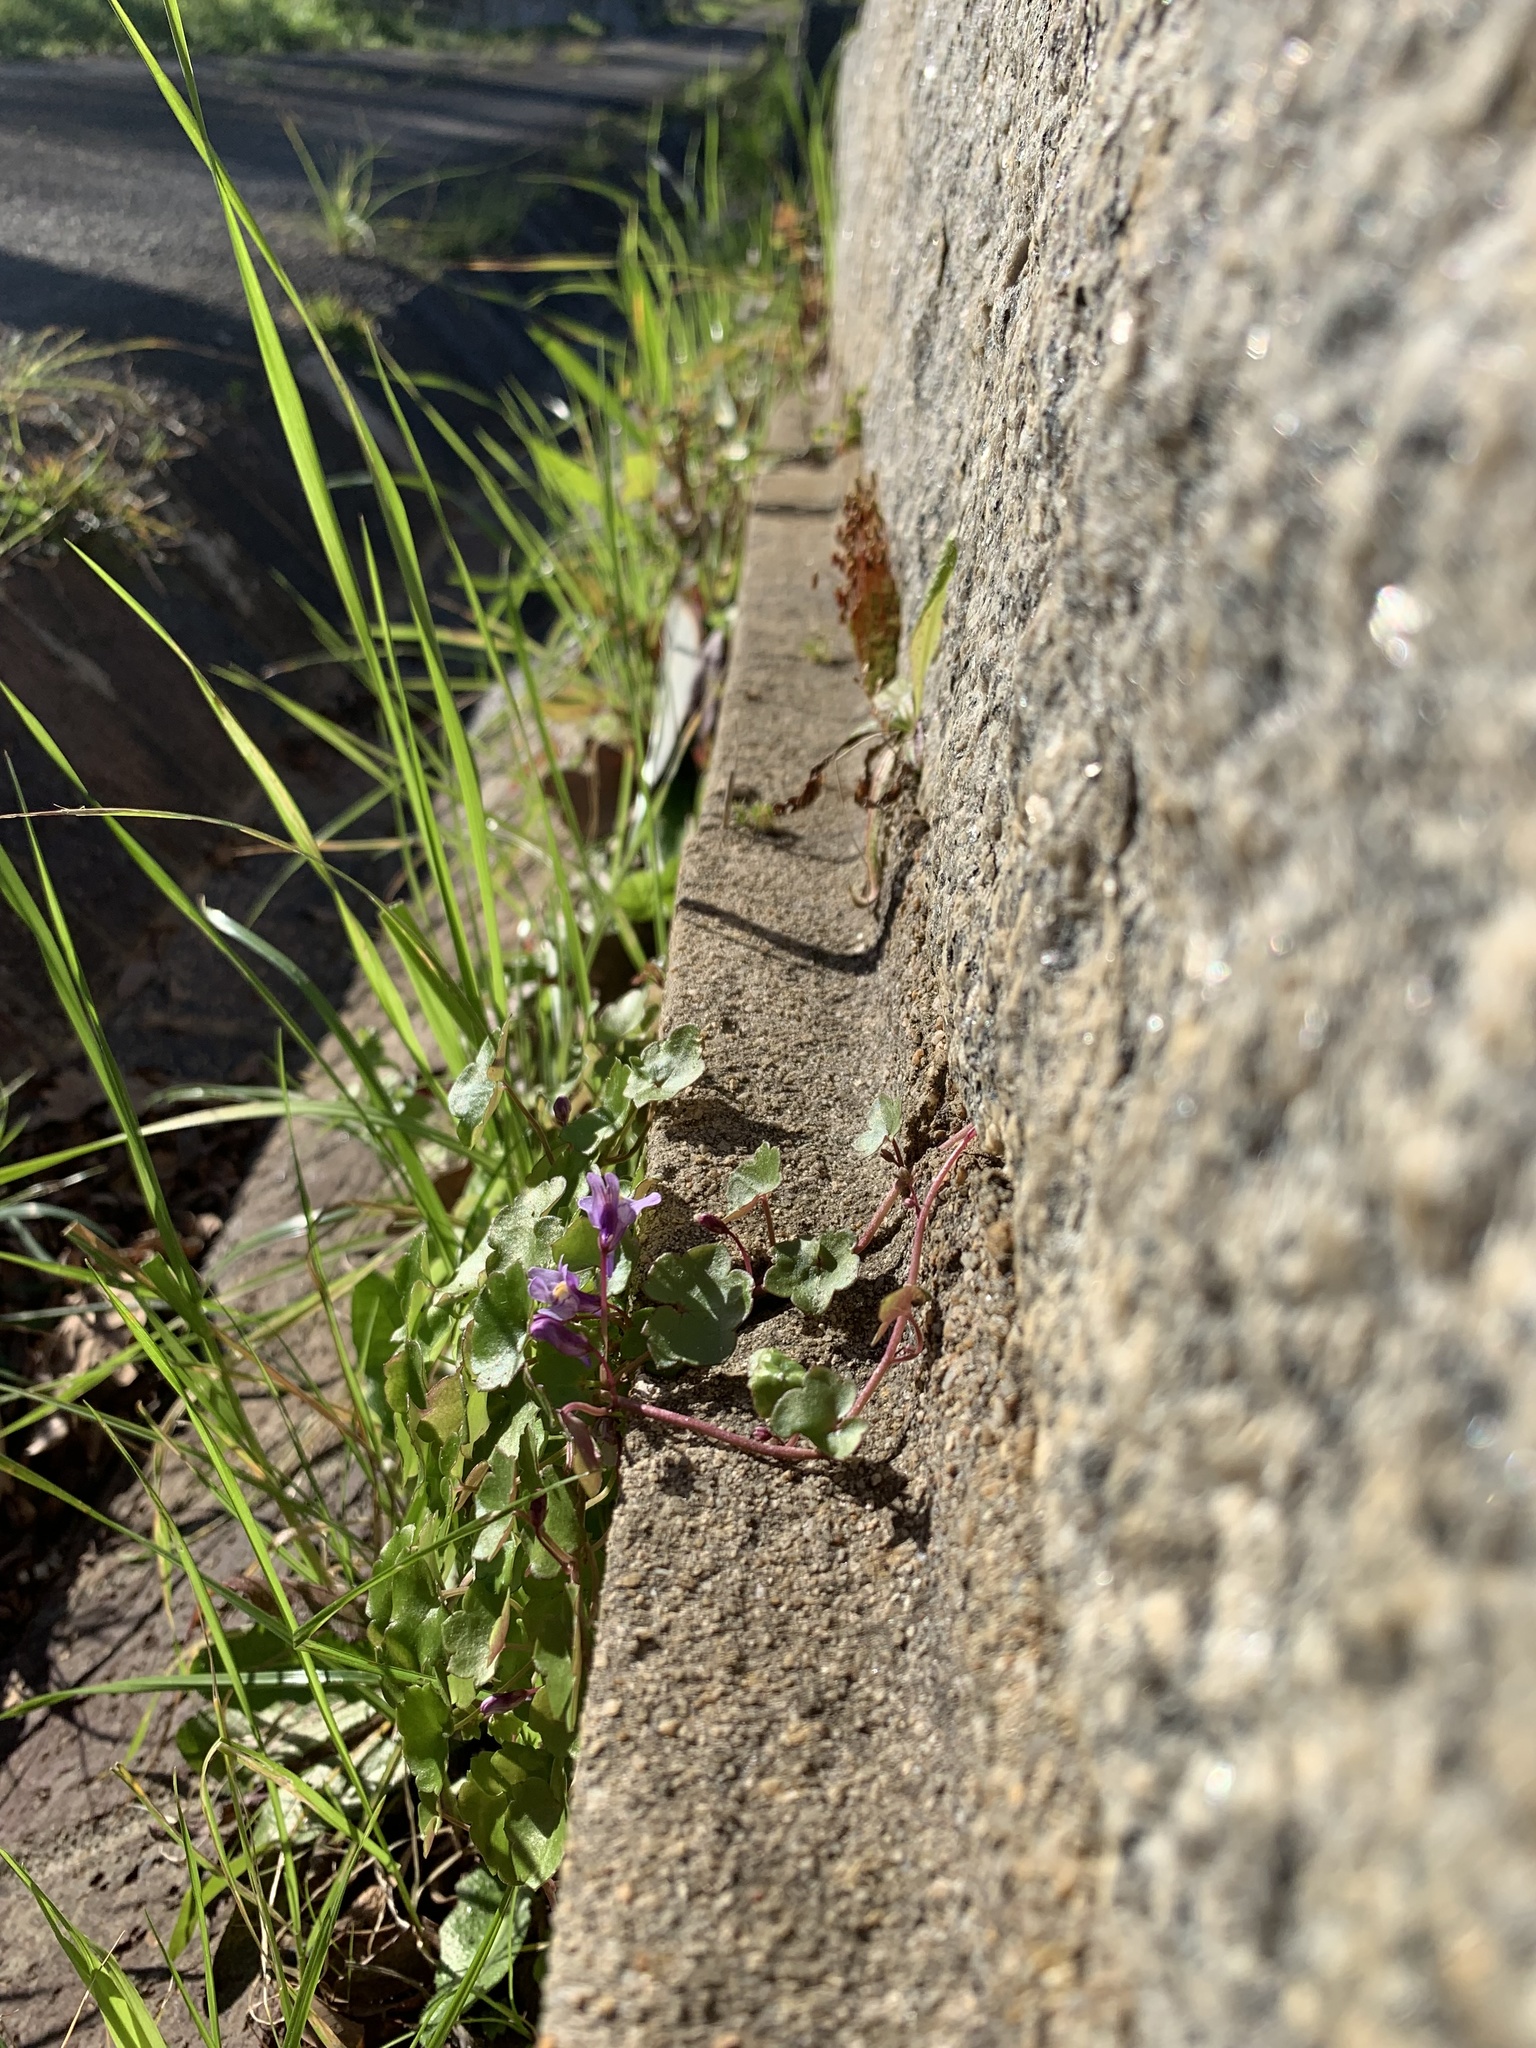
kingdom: Plantae
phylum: Tracheophyta
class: Magnoliopsida
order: Lamiales
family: Plantaginaceae
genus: Cymbalaria
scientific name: Cymbalaria muralis
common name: Ivy-leaved toadflax
